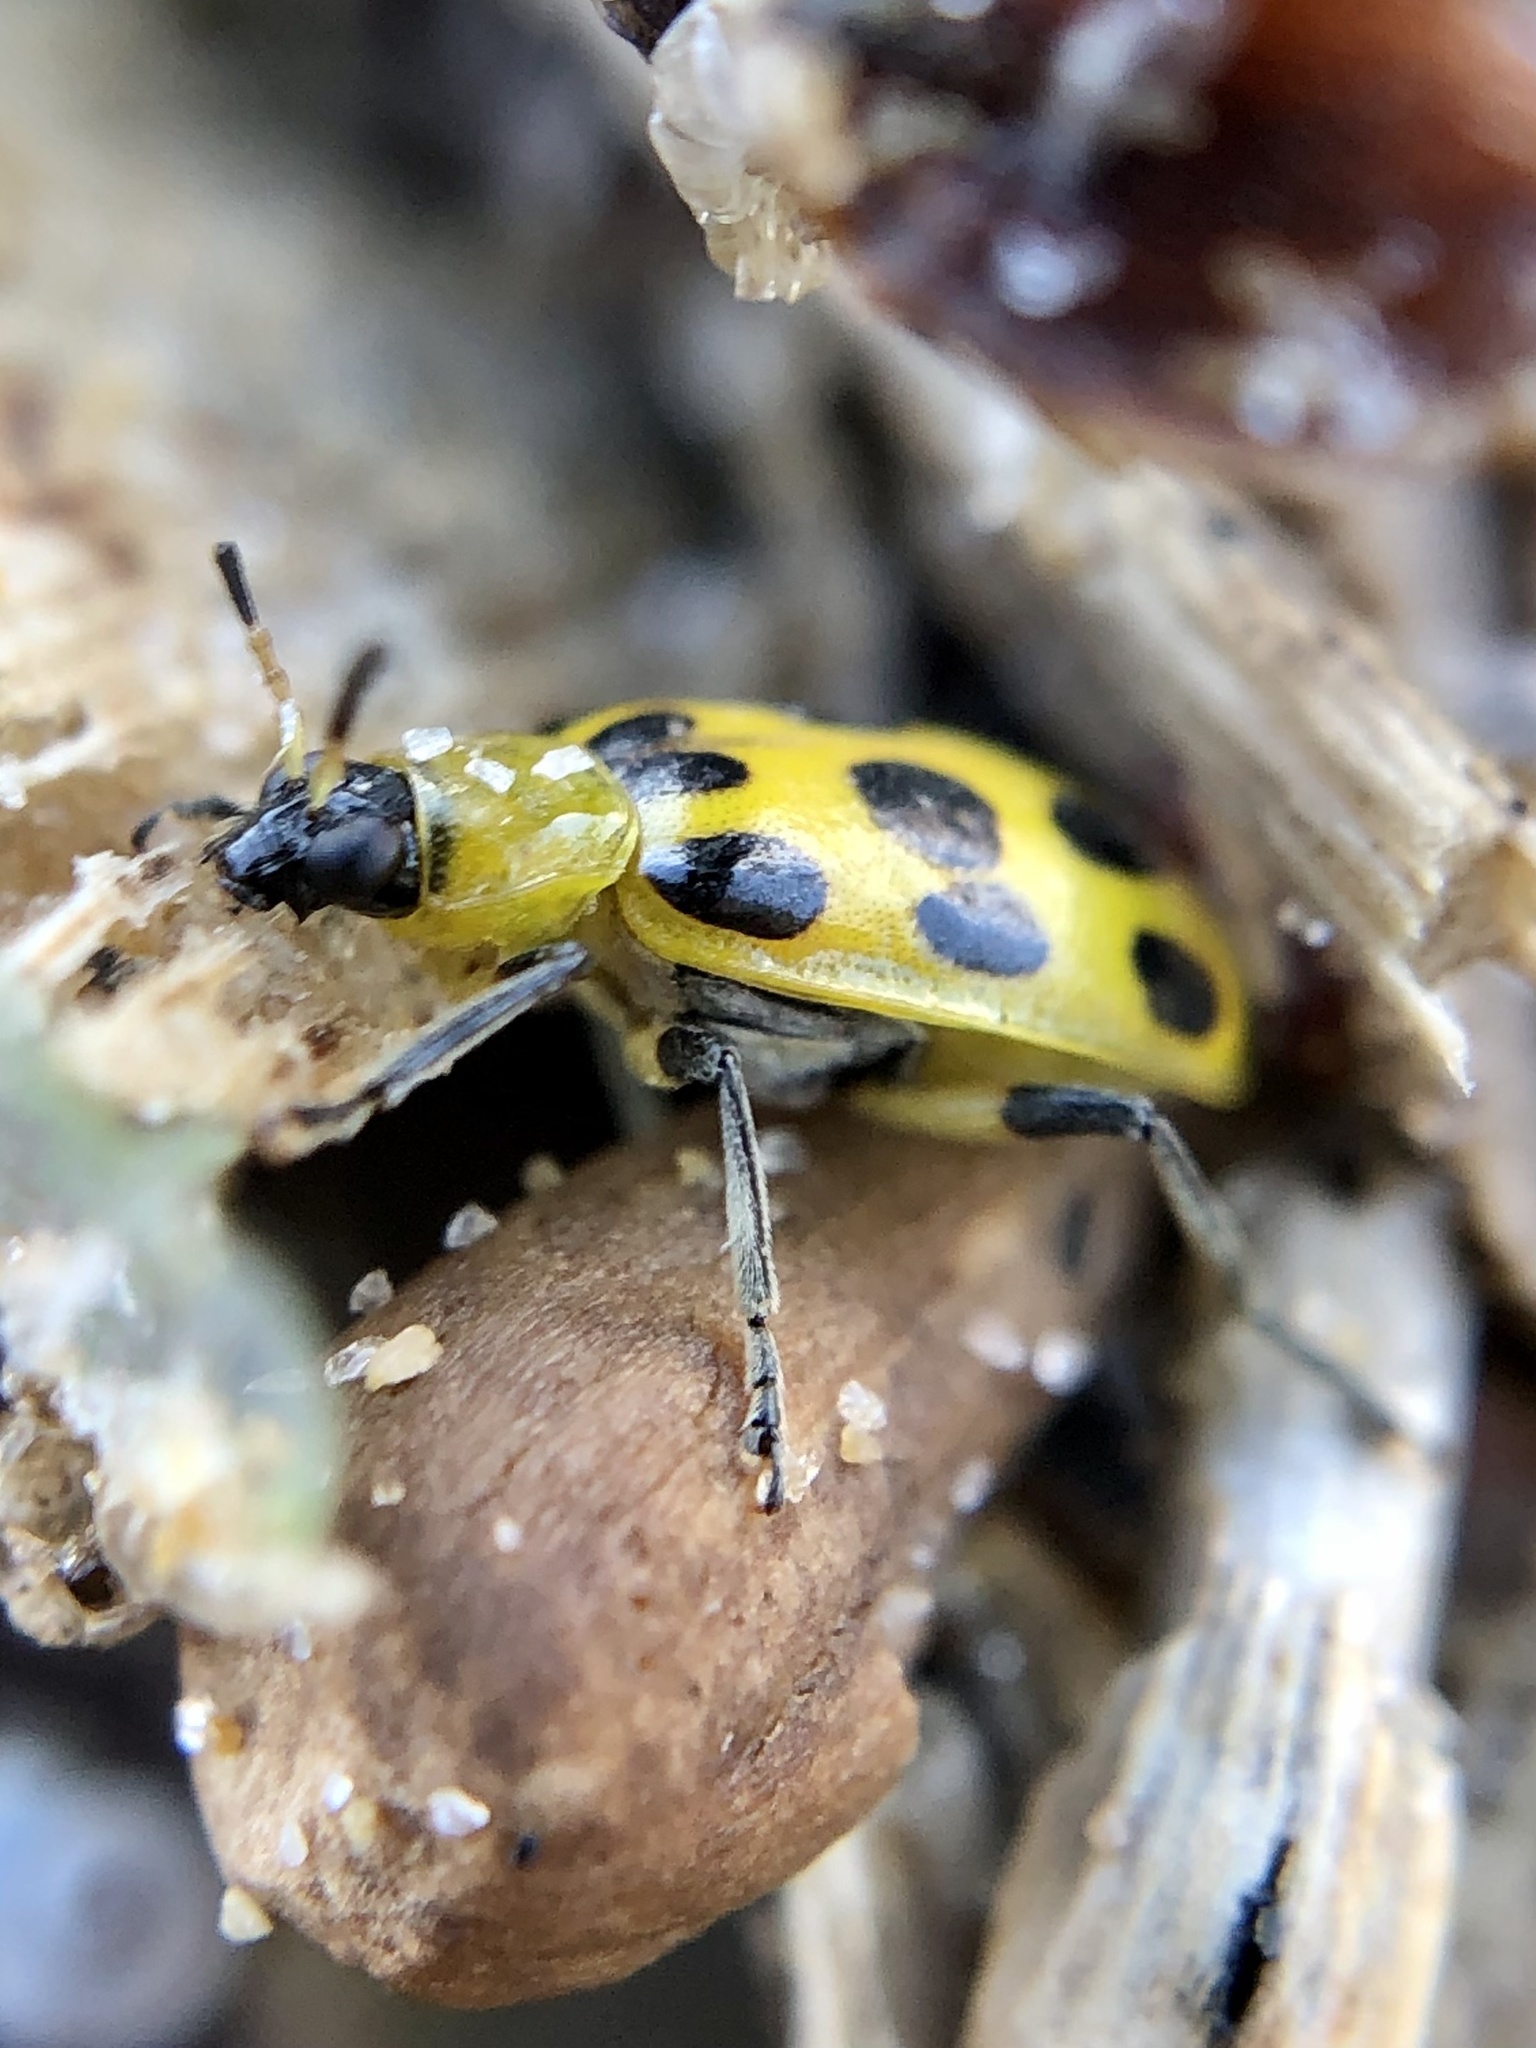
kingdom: Animalia
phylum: Arthropoda
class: Insecta
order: Coleoptera
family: Chrysomelidae
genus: Diabrotica
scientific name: Diabrotica undecimpunctata
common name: Spotted cucumber beetle
